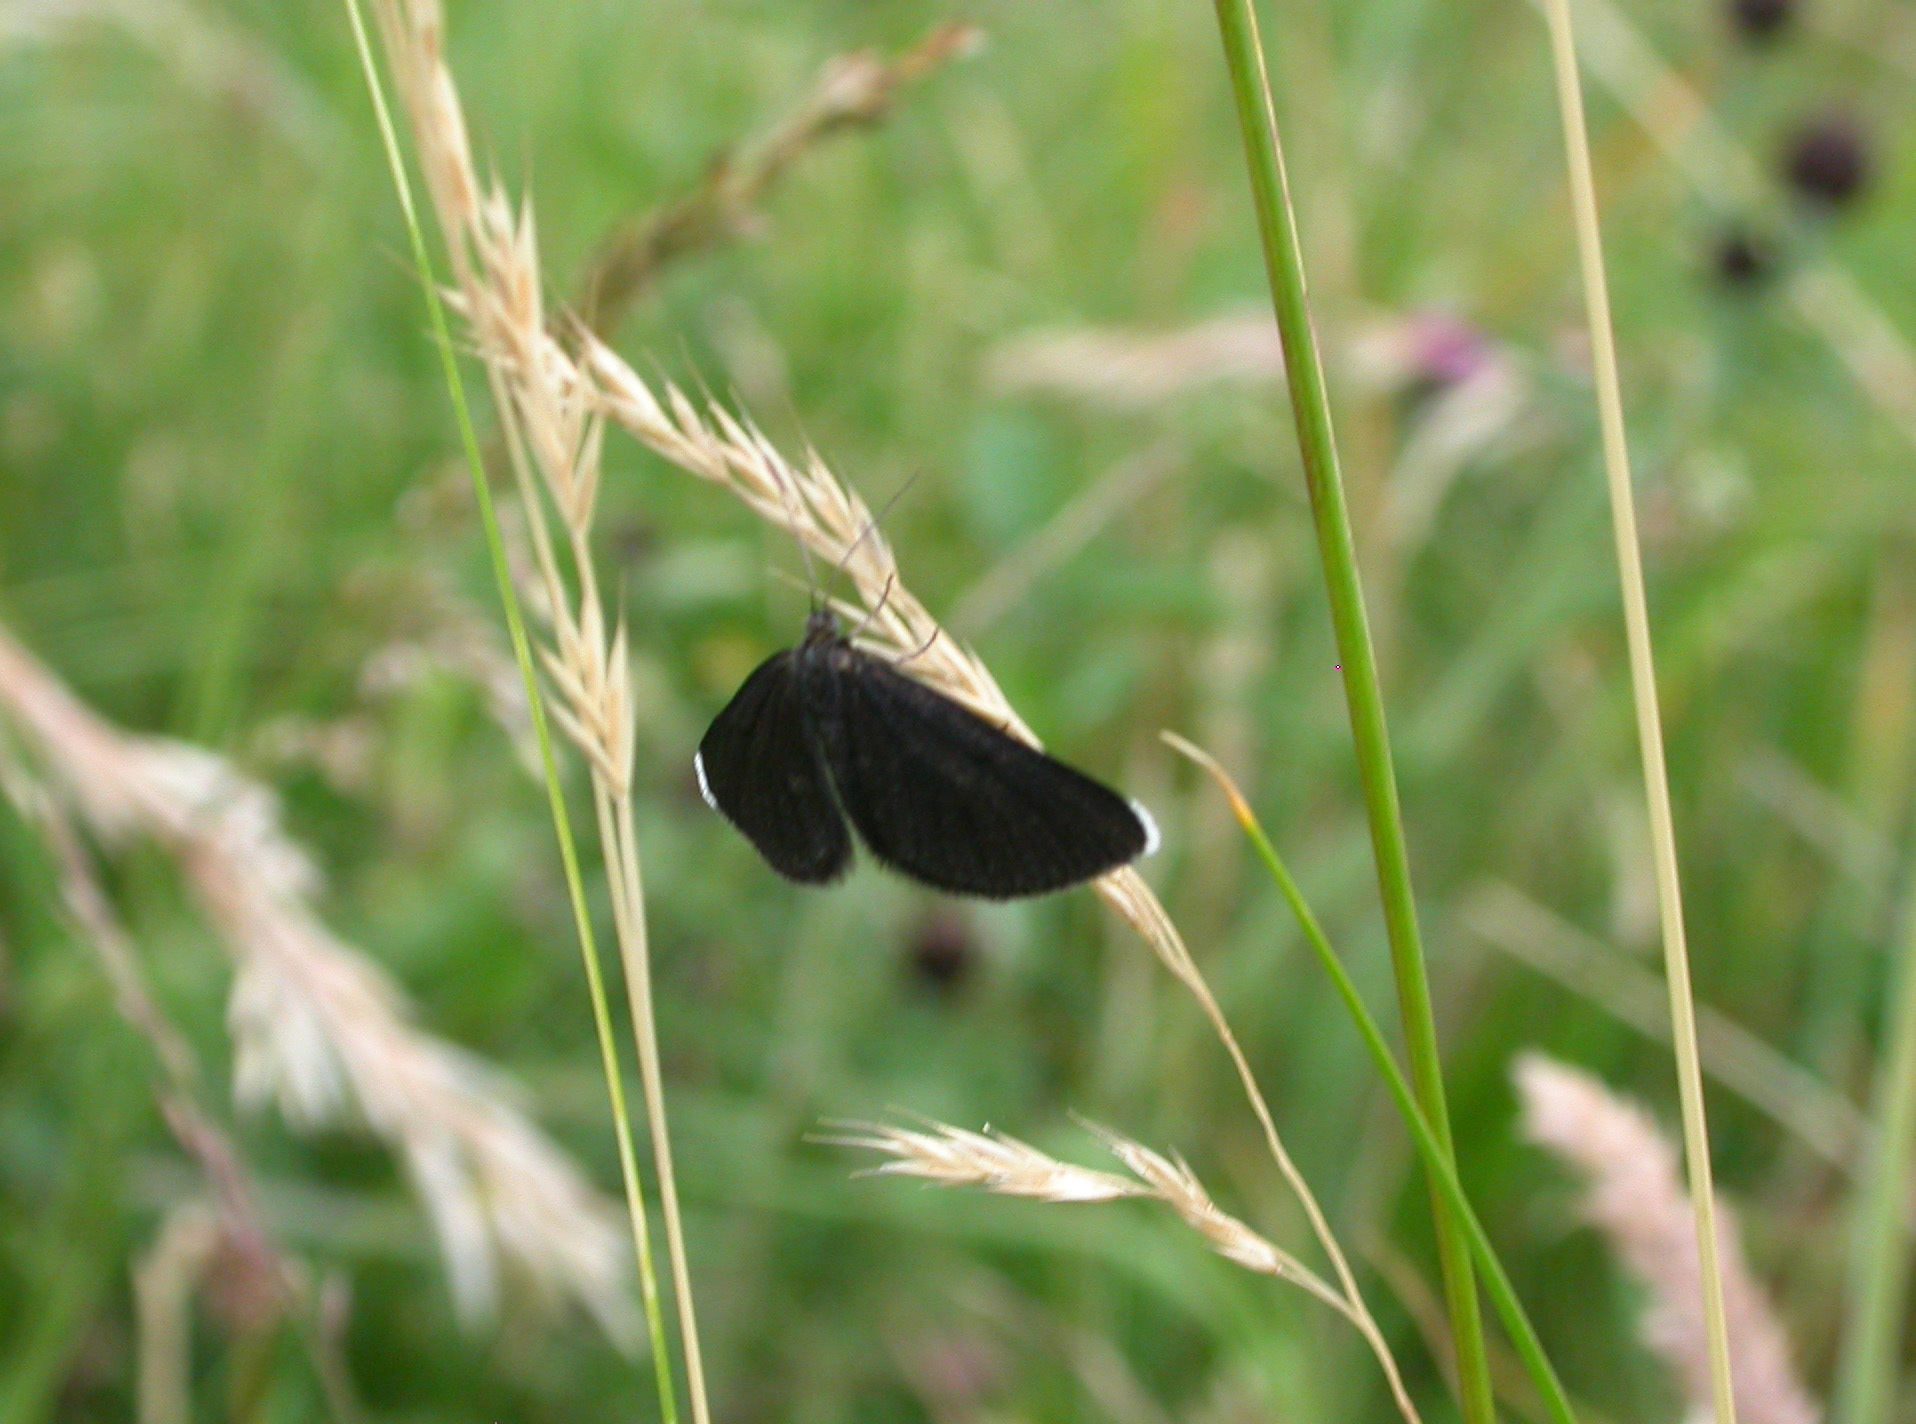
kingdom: Animalia
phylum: Arthropoda
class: Insecta
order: Lepidoptera
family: Geometridae
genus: Odezia
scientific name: Odezia atrata
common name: Chimney sweeper
